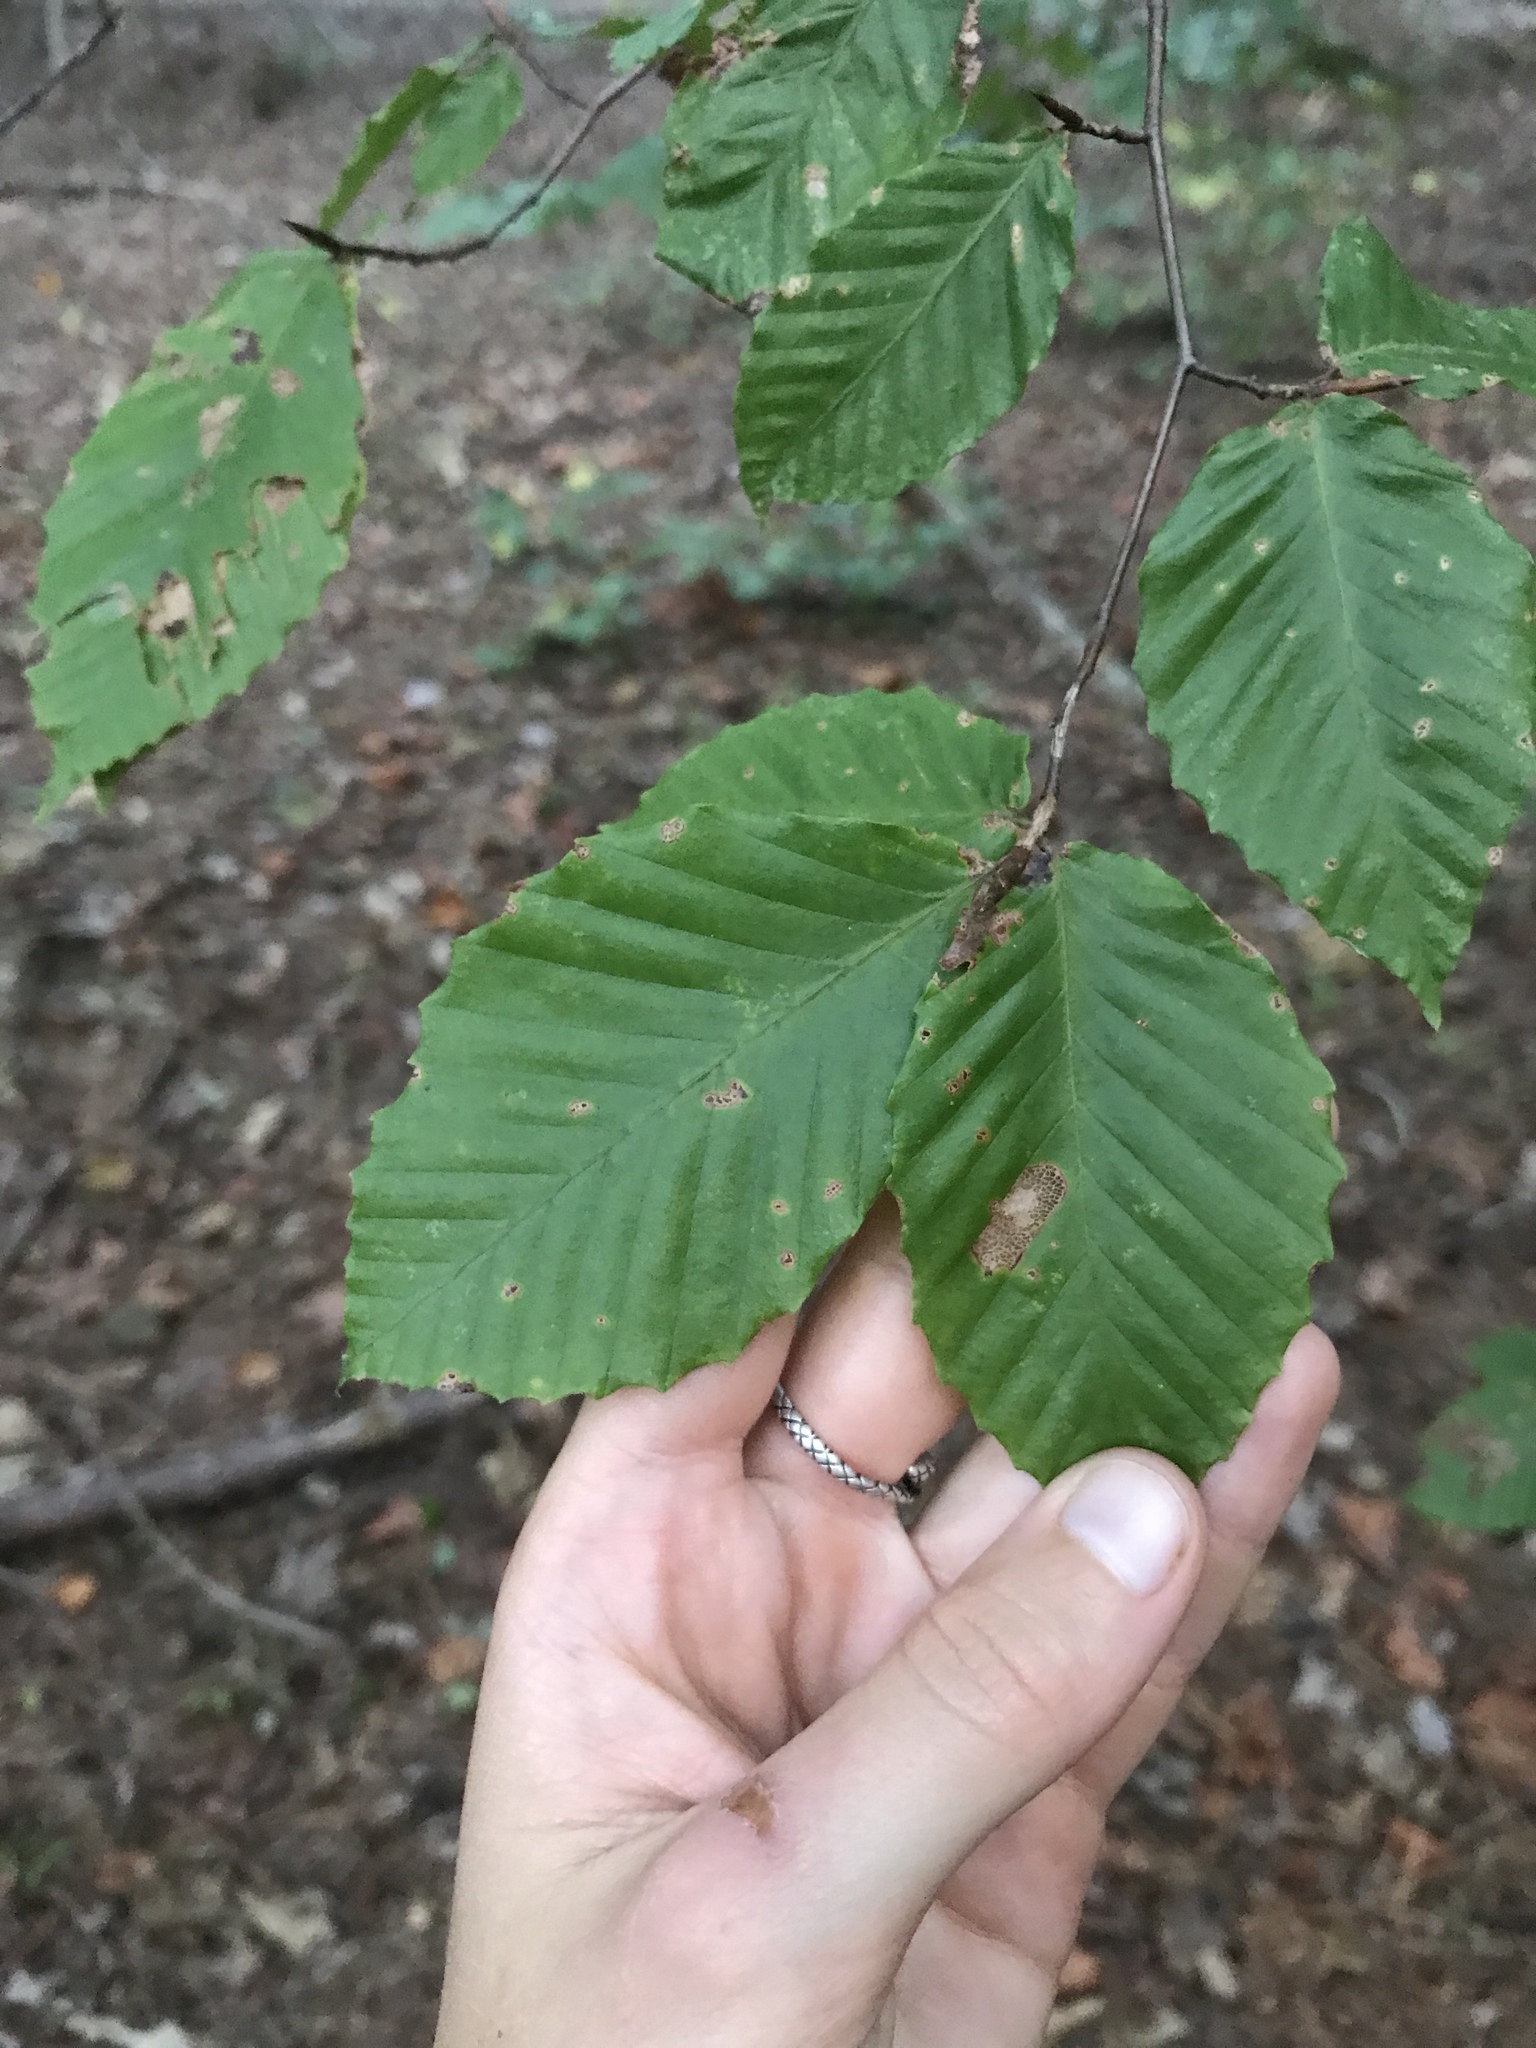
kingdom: Plantae
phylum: Tracheophyta
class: Magnoliopsida
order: Fagales
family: Fagaceae
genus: Fagus
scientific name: Fagus grandifolia
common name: American beech
